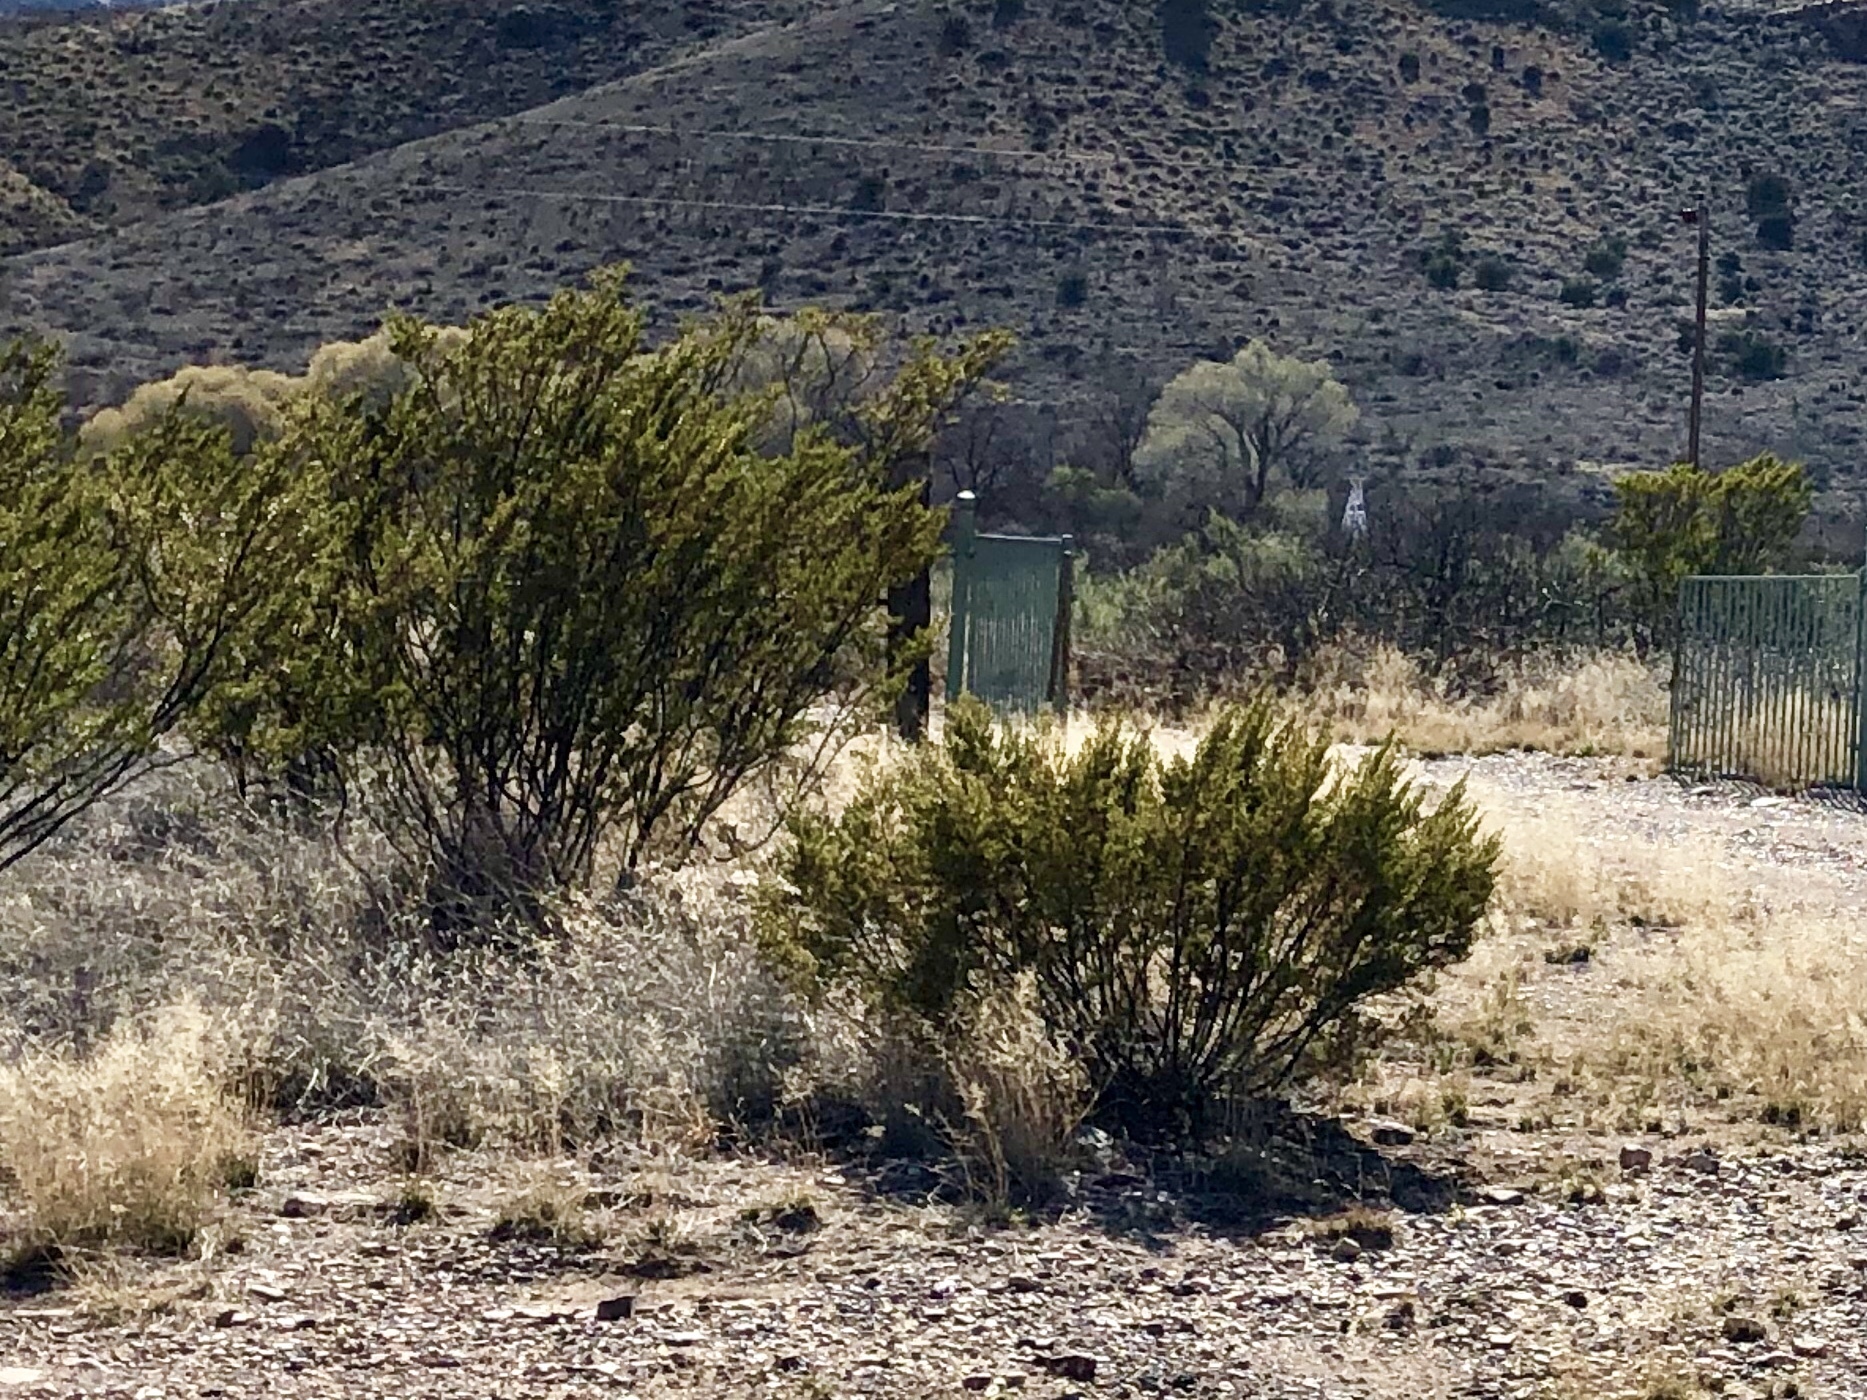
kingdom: Plantae
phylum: Tracheophyta
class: Magnoliopsida
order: Zygophyllales
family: Zygophyllaceae
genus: Larrea
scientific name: Larrea tridentata
